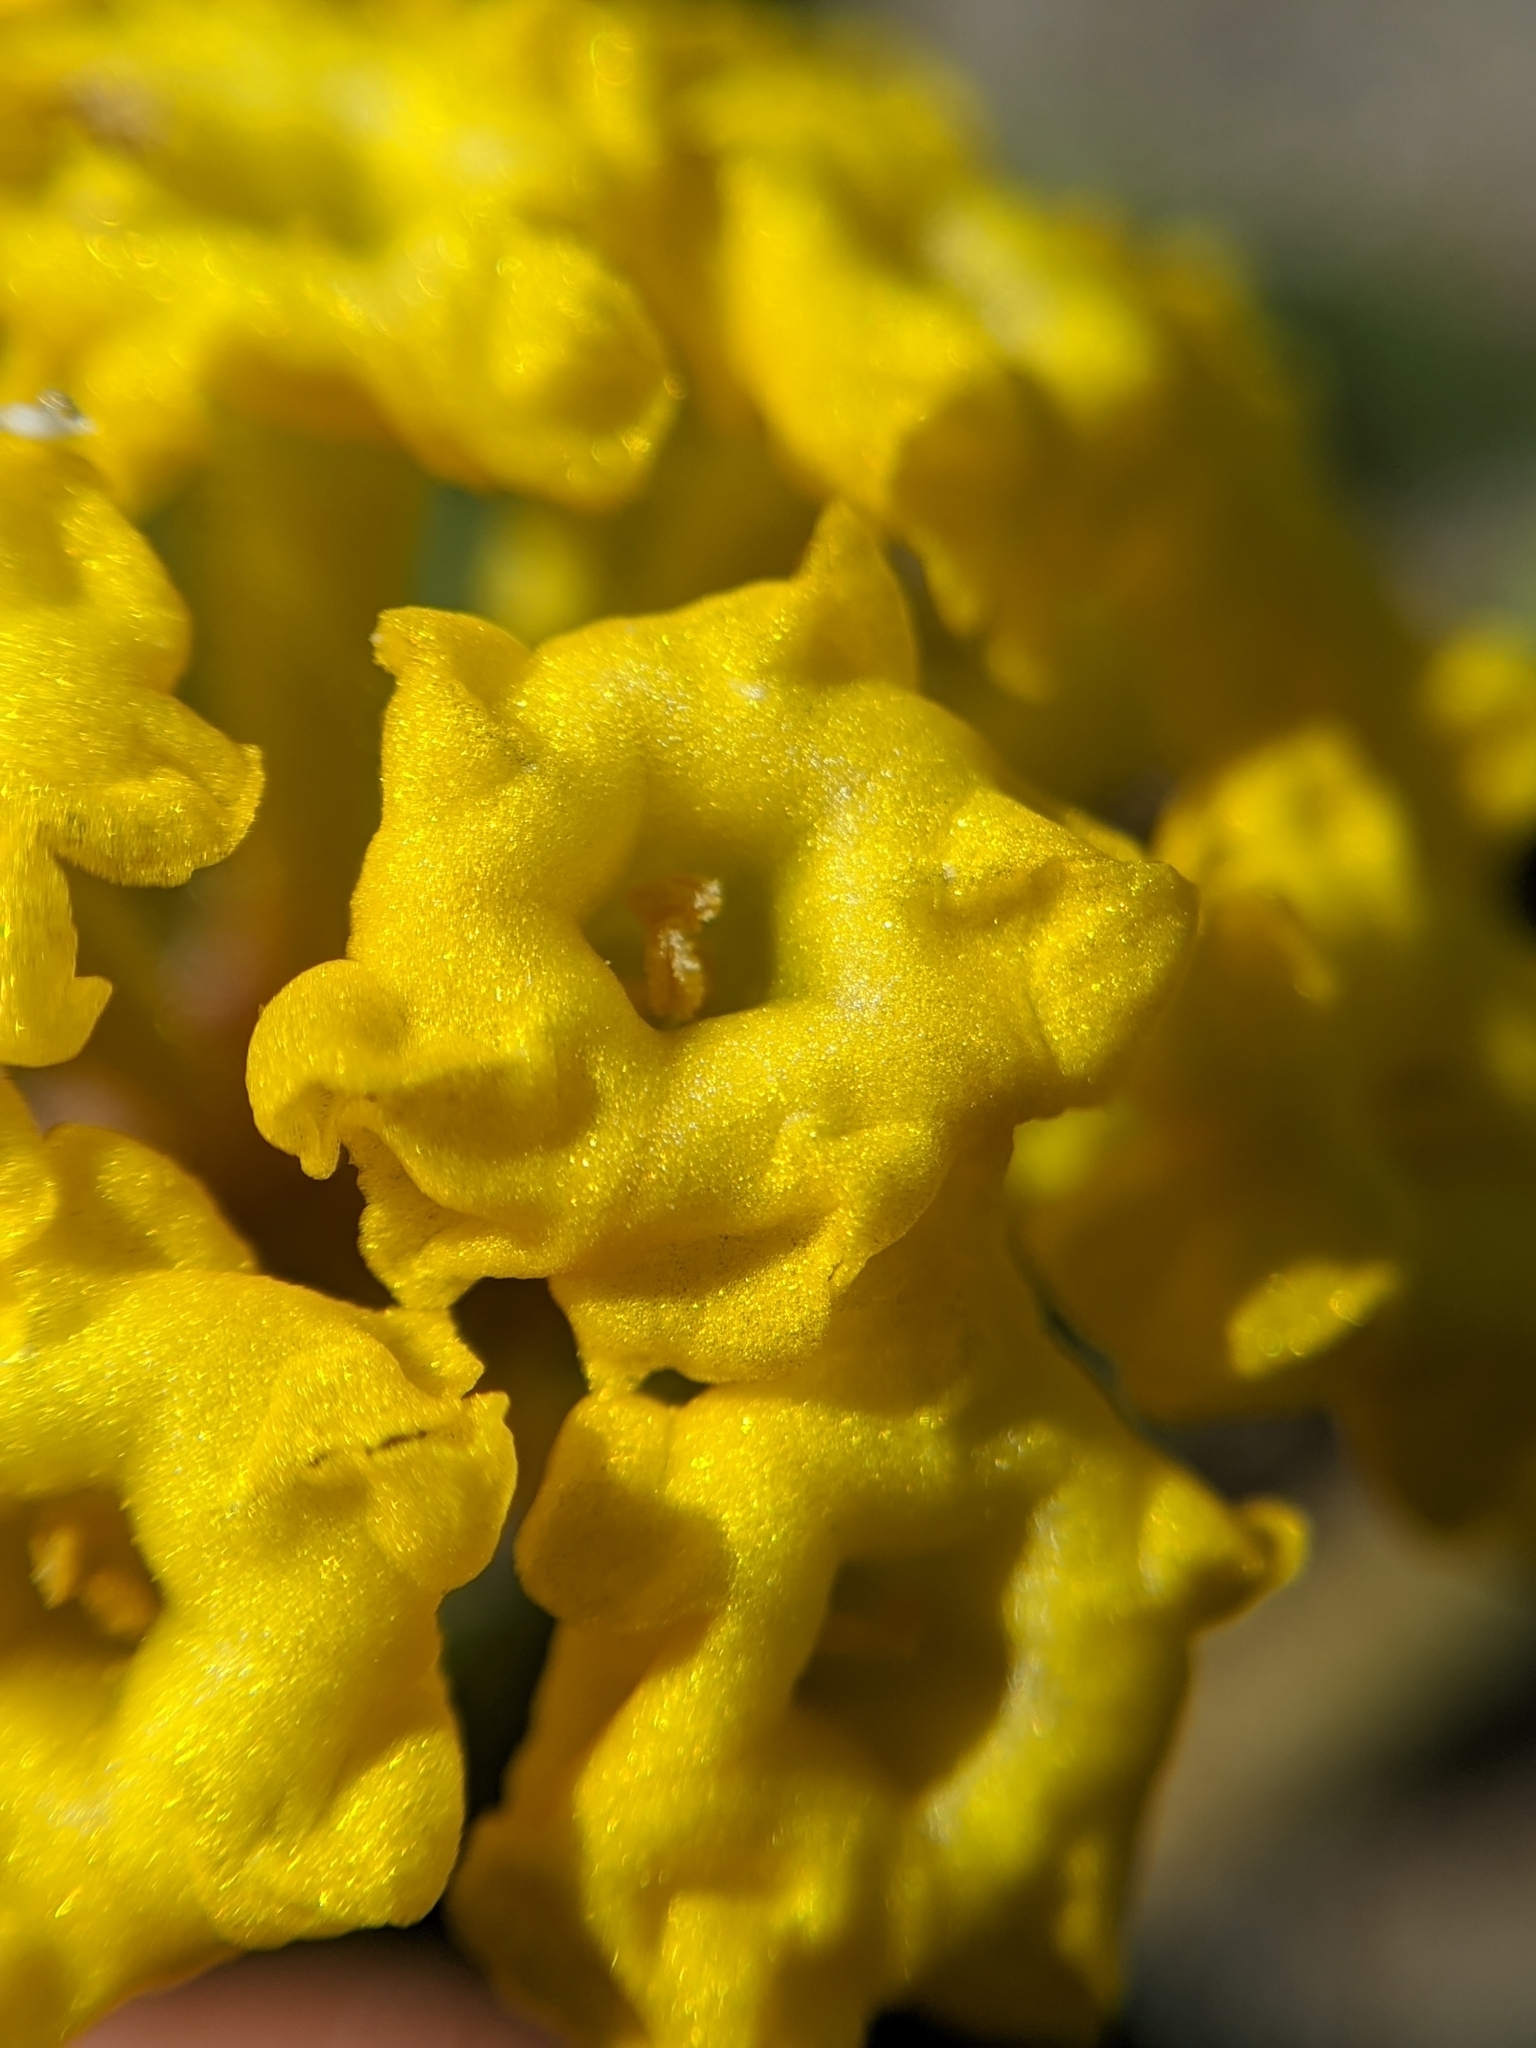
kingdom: Plantae
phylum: Tracheophyta
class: Magnoliopsida
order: Caryophyllales
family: Nyctaginaceae
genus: Abronia
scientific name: Abronia latifolia
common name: Yellow sand-verbena
